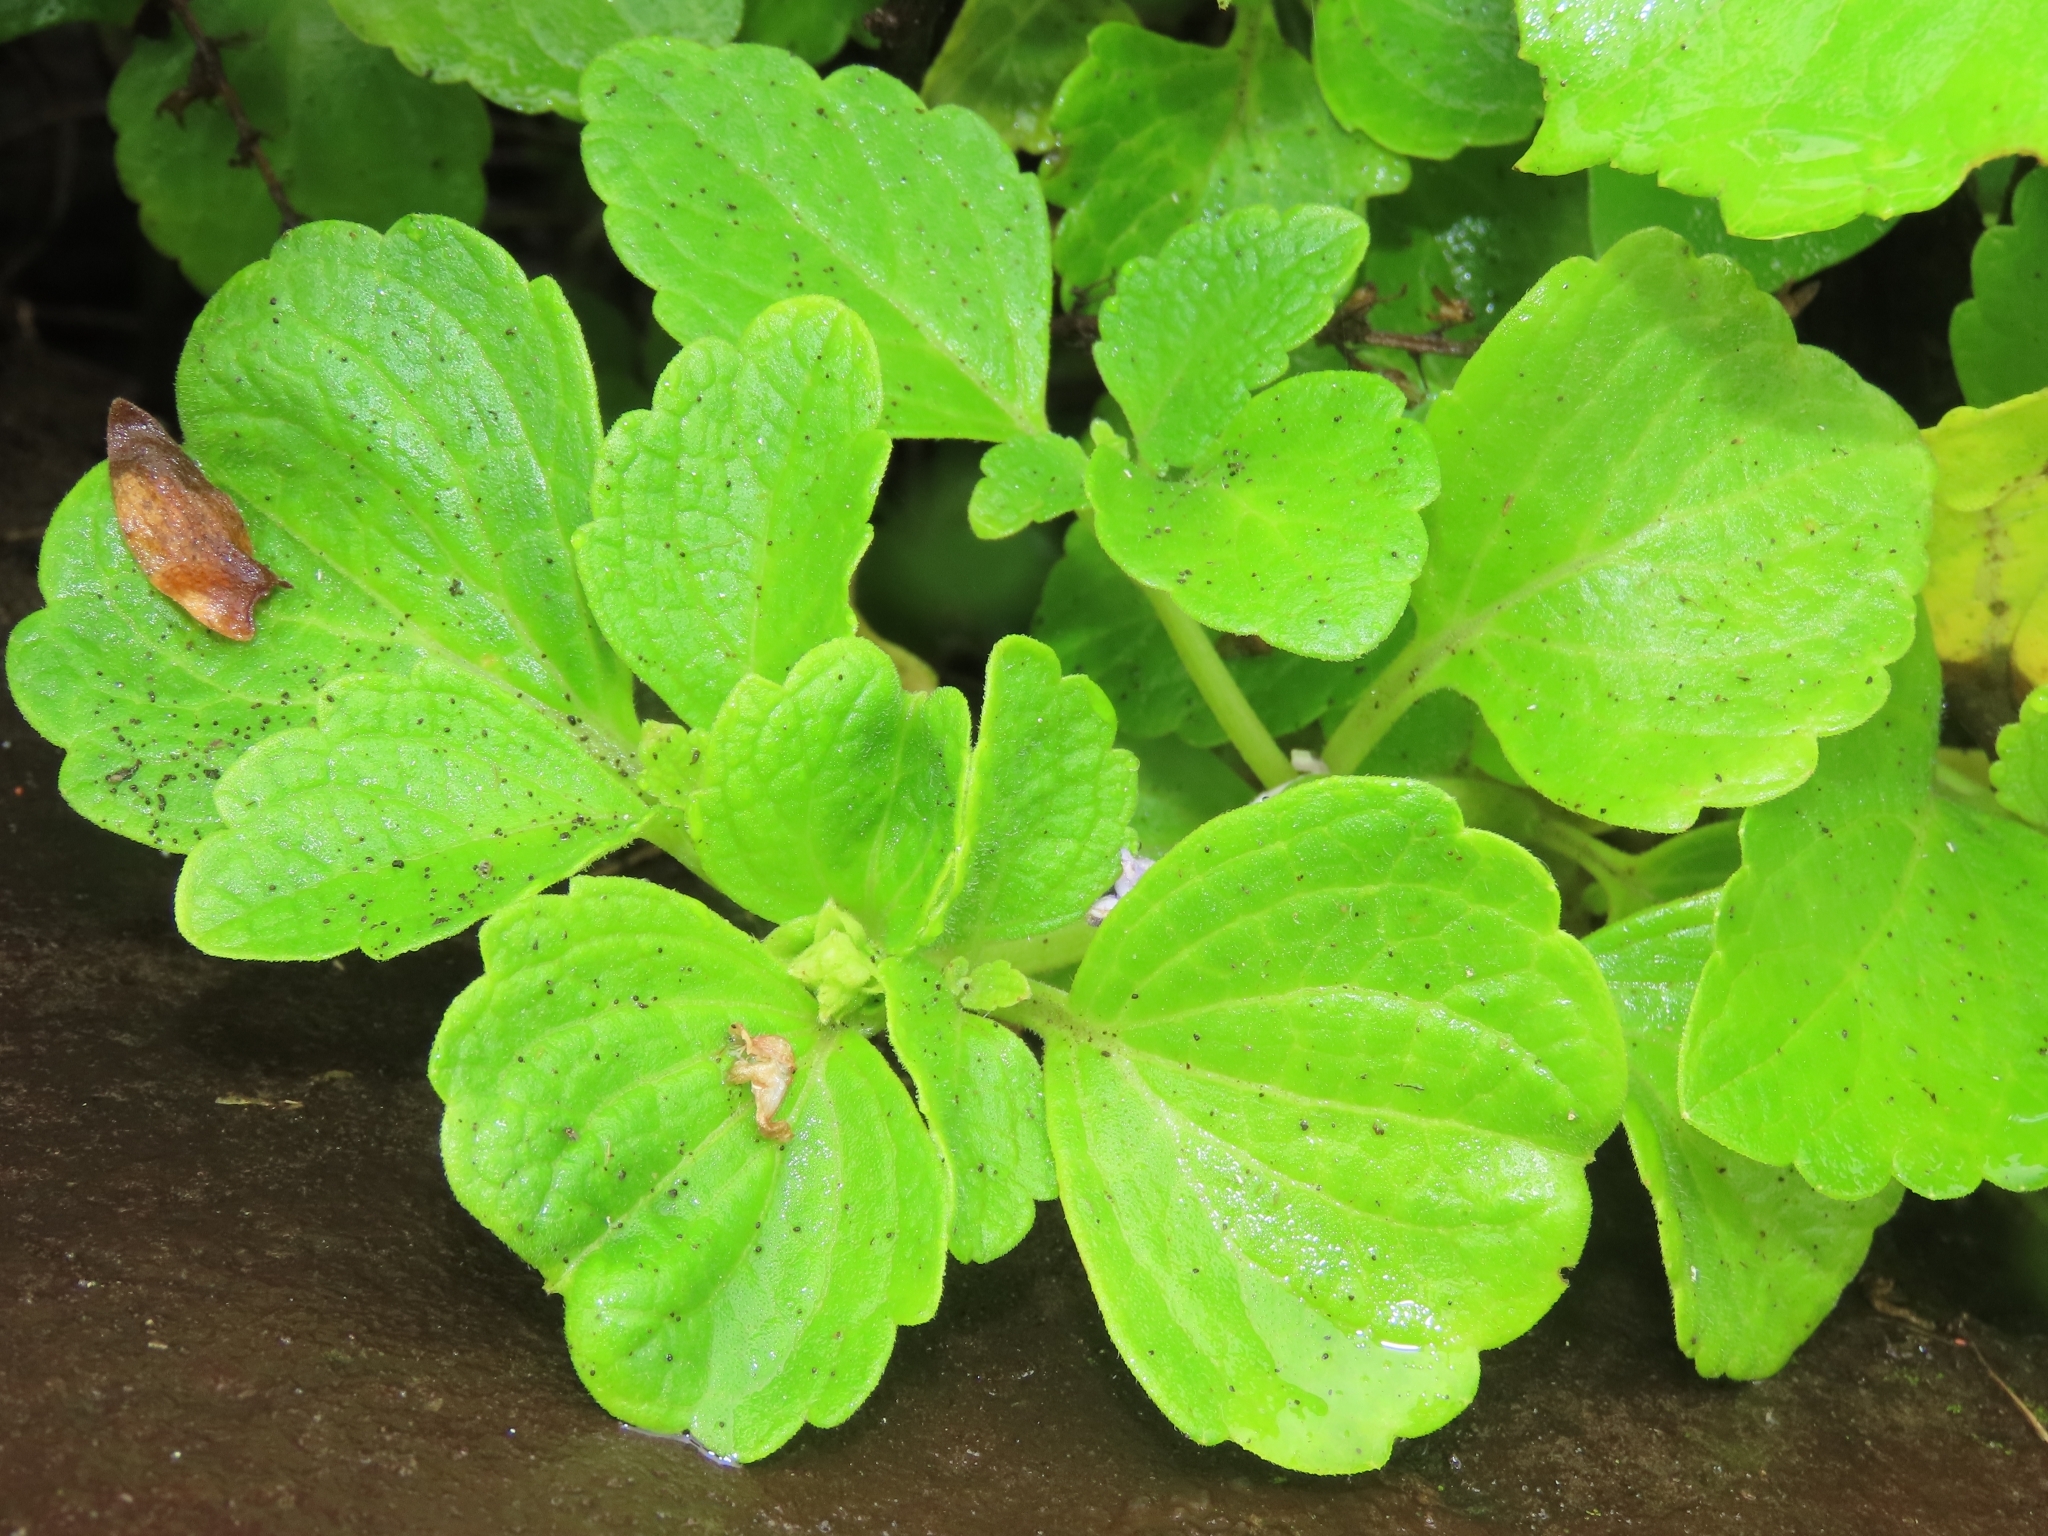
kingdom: Plantae
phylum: Tracheophyta
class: Magnoliopsida
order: Lamiales
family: Lamiaceae
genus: Coleus
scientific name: Coleus scutellarioides
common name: Coleus
